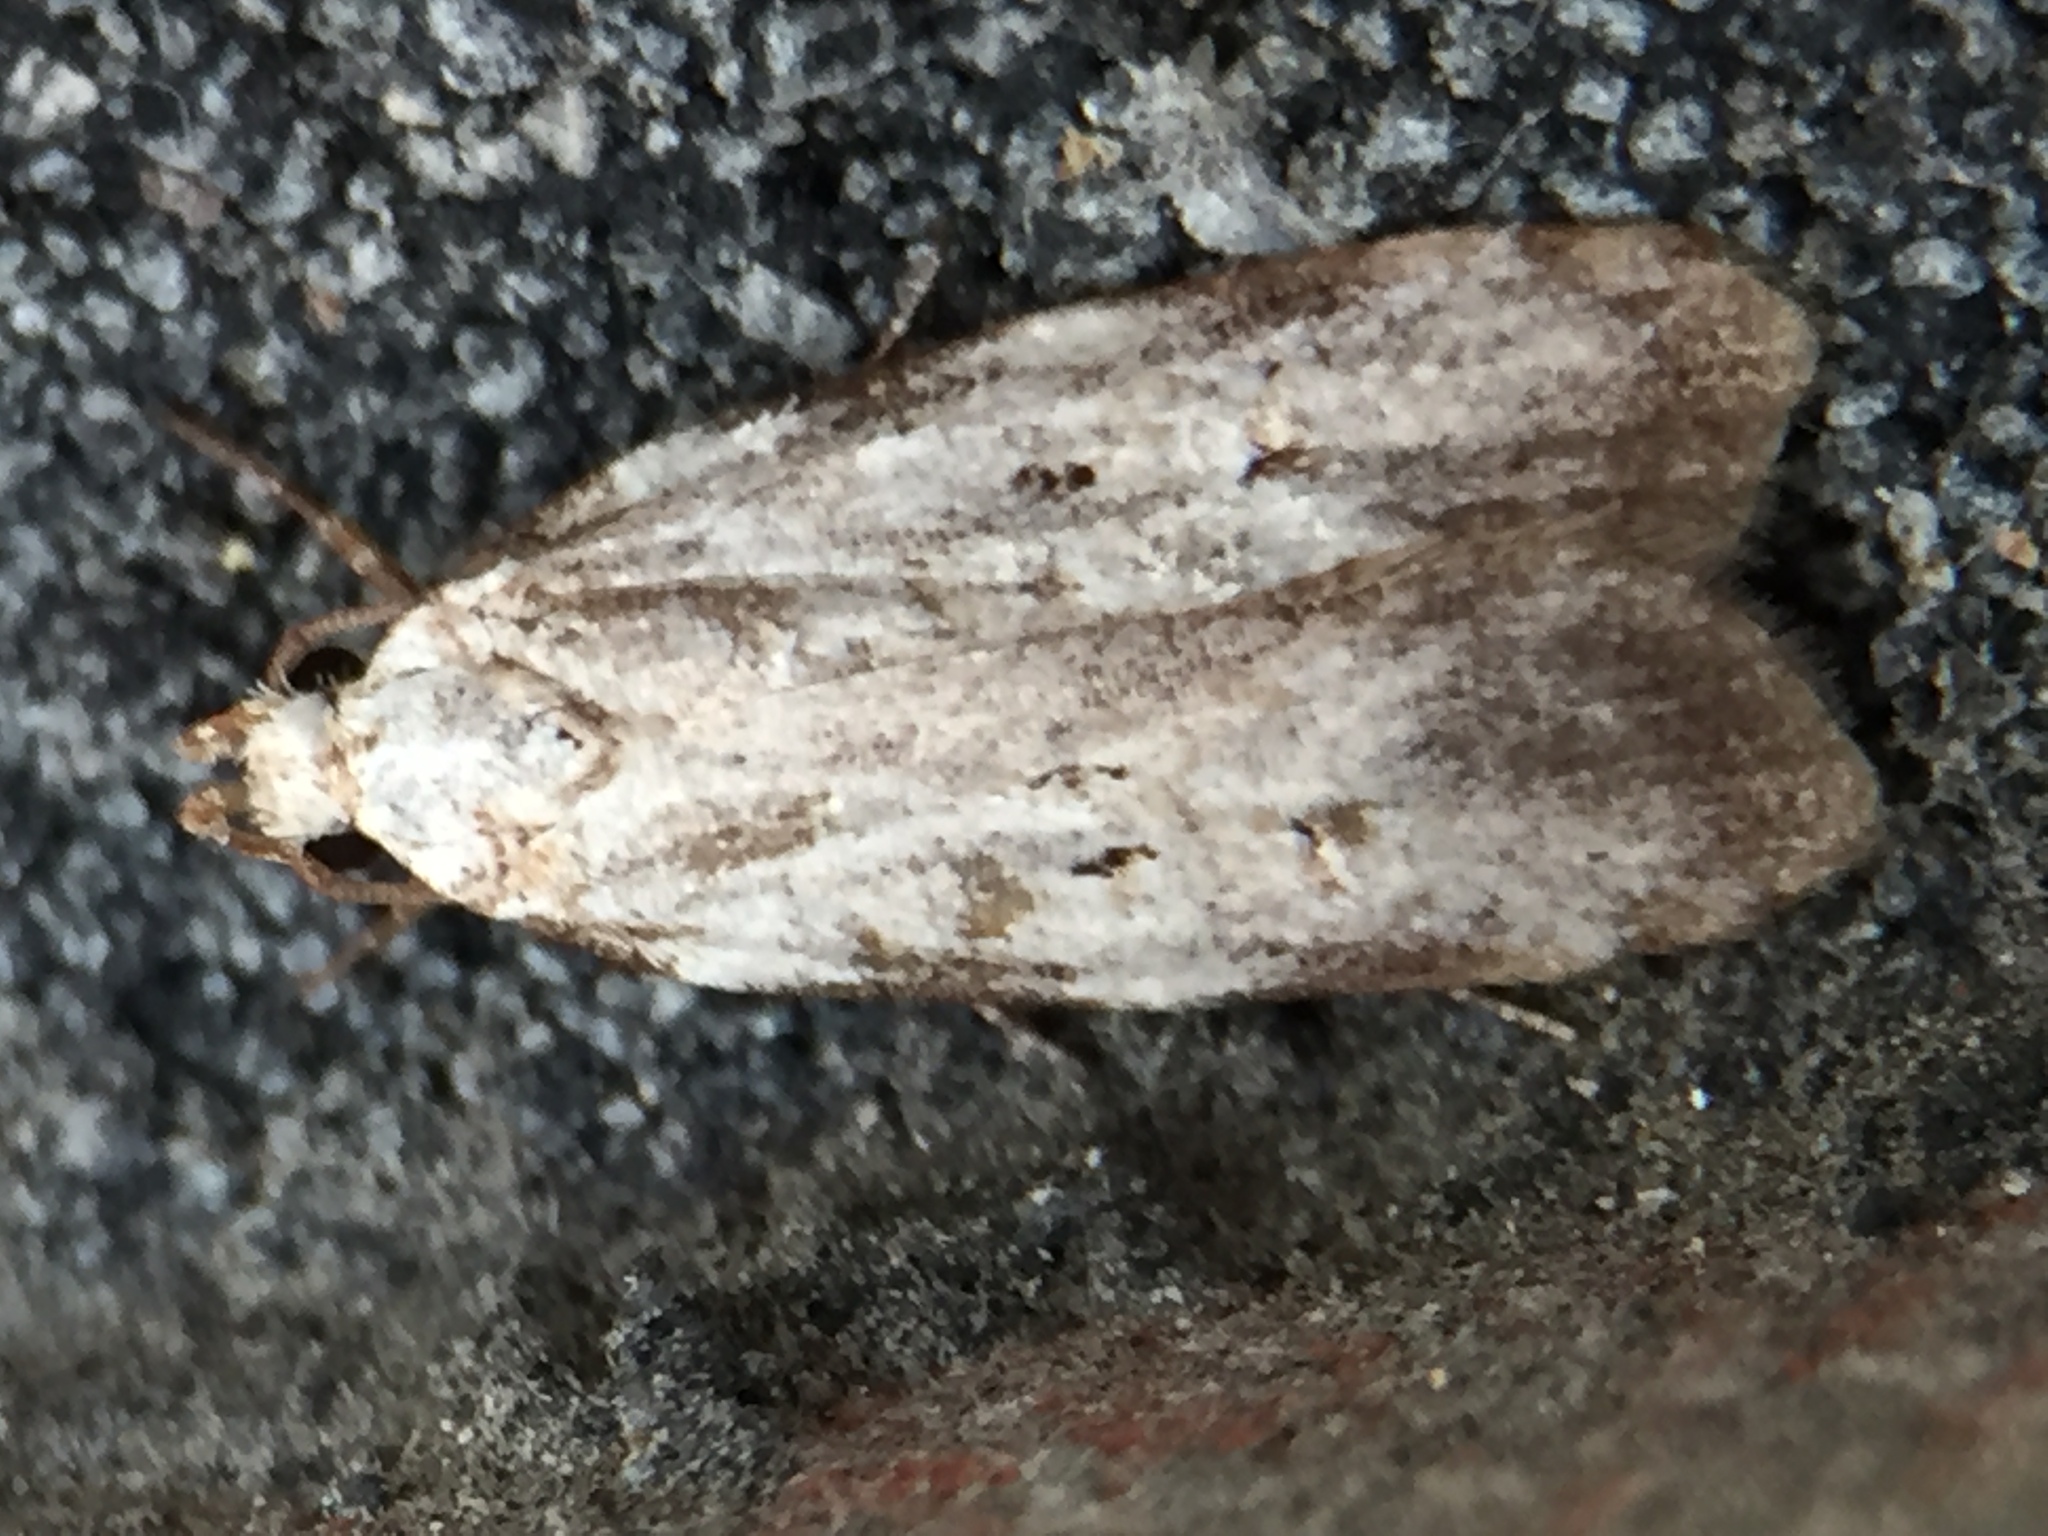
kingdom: Animalia
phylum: Arthropoda
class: Insecta
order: Lepidoptera
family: Oecophoridae
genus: Izatha
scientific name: Izatha balanophora
